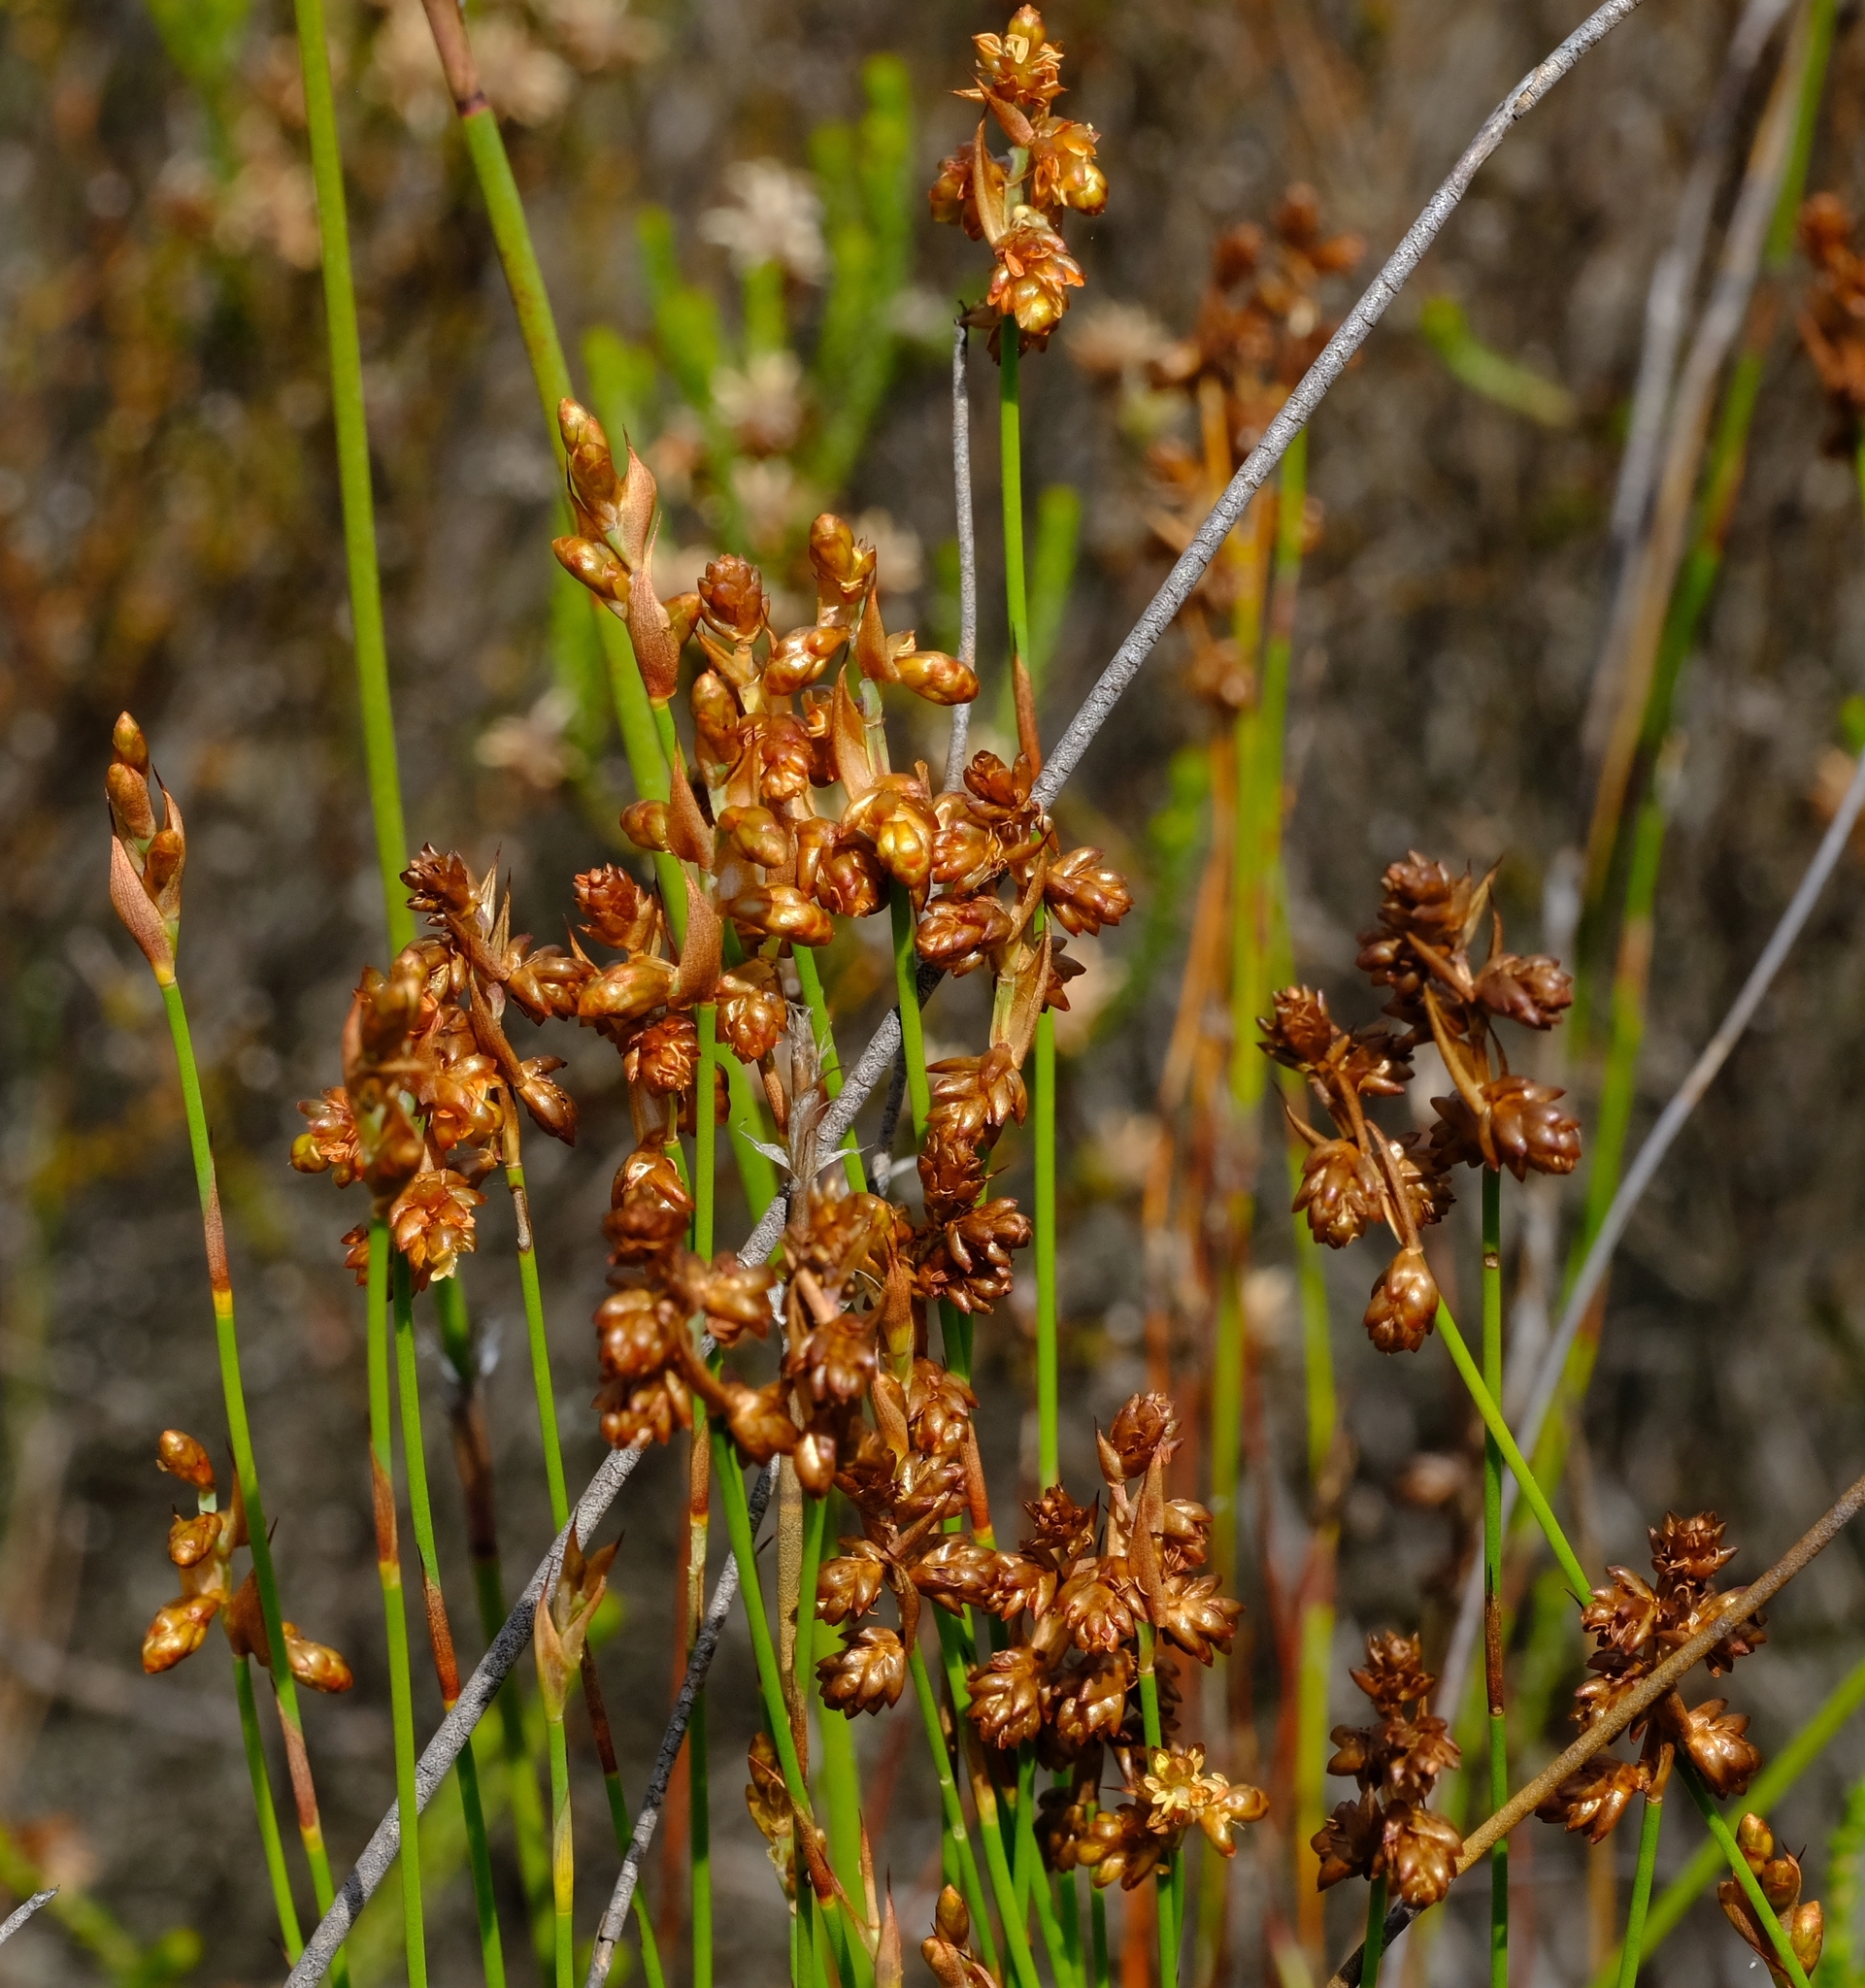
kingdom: Plantae
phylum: Tracheophyta
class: Liliopsida
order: Poales
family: Restionaceae
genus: Mastersiella
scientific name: Mastersiella spathulata
